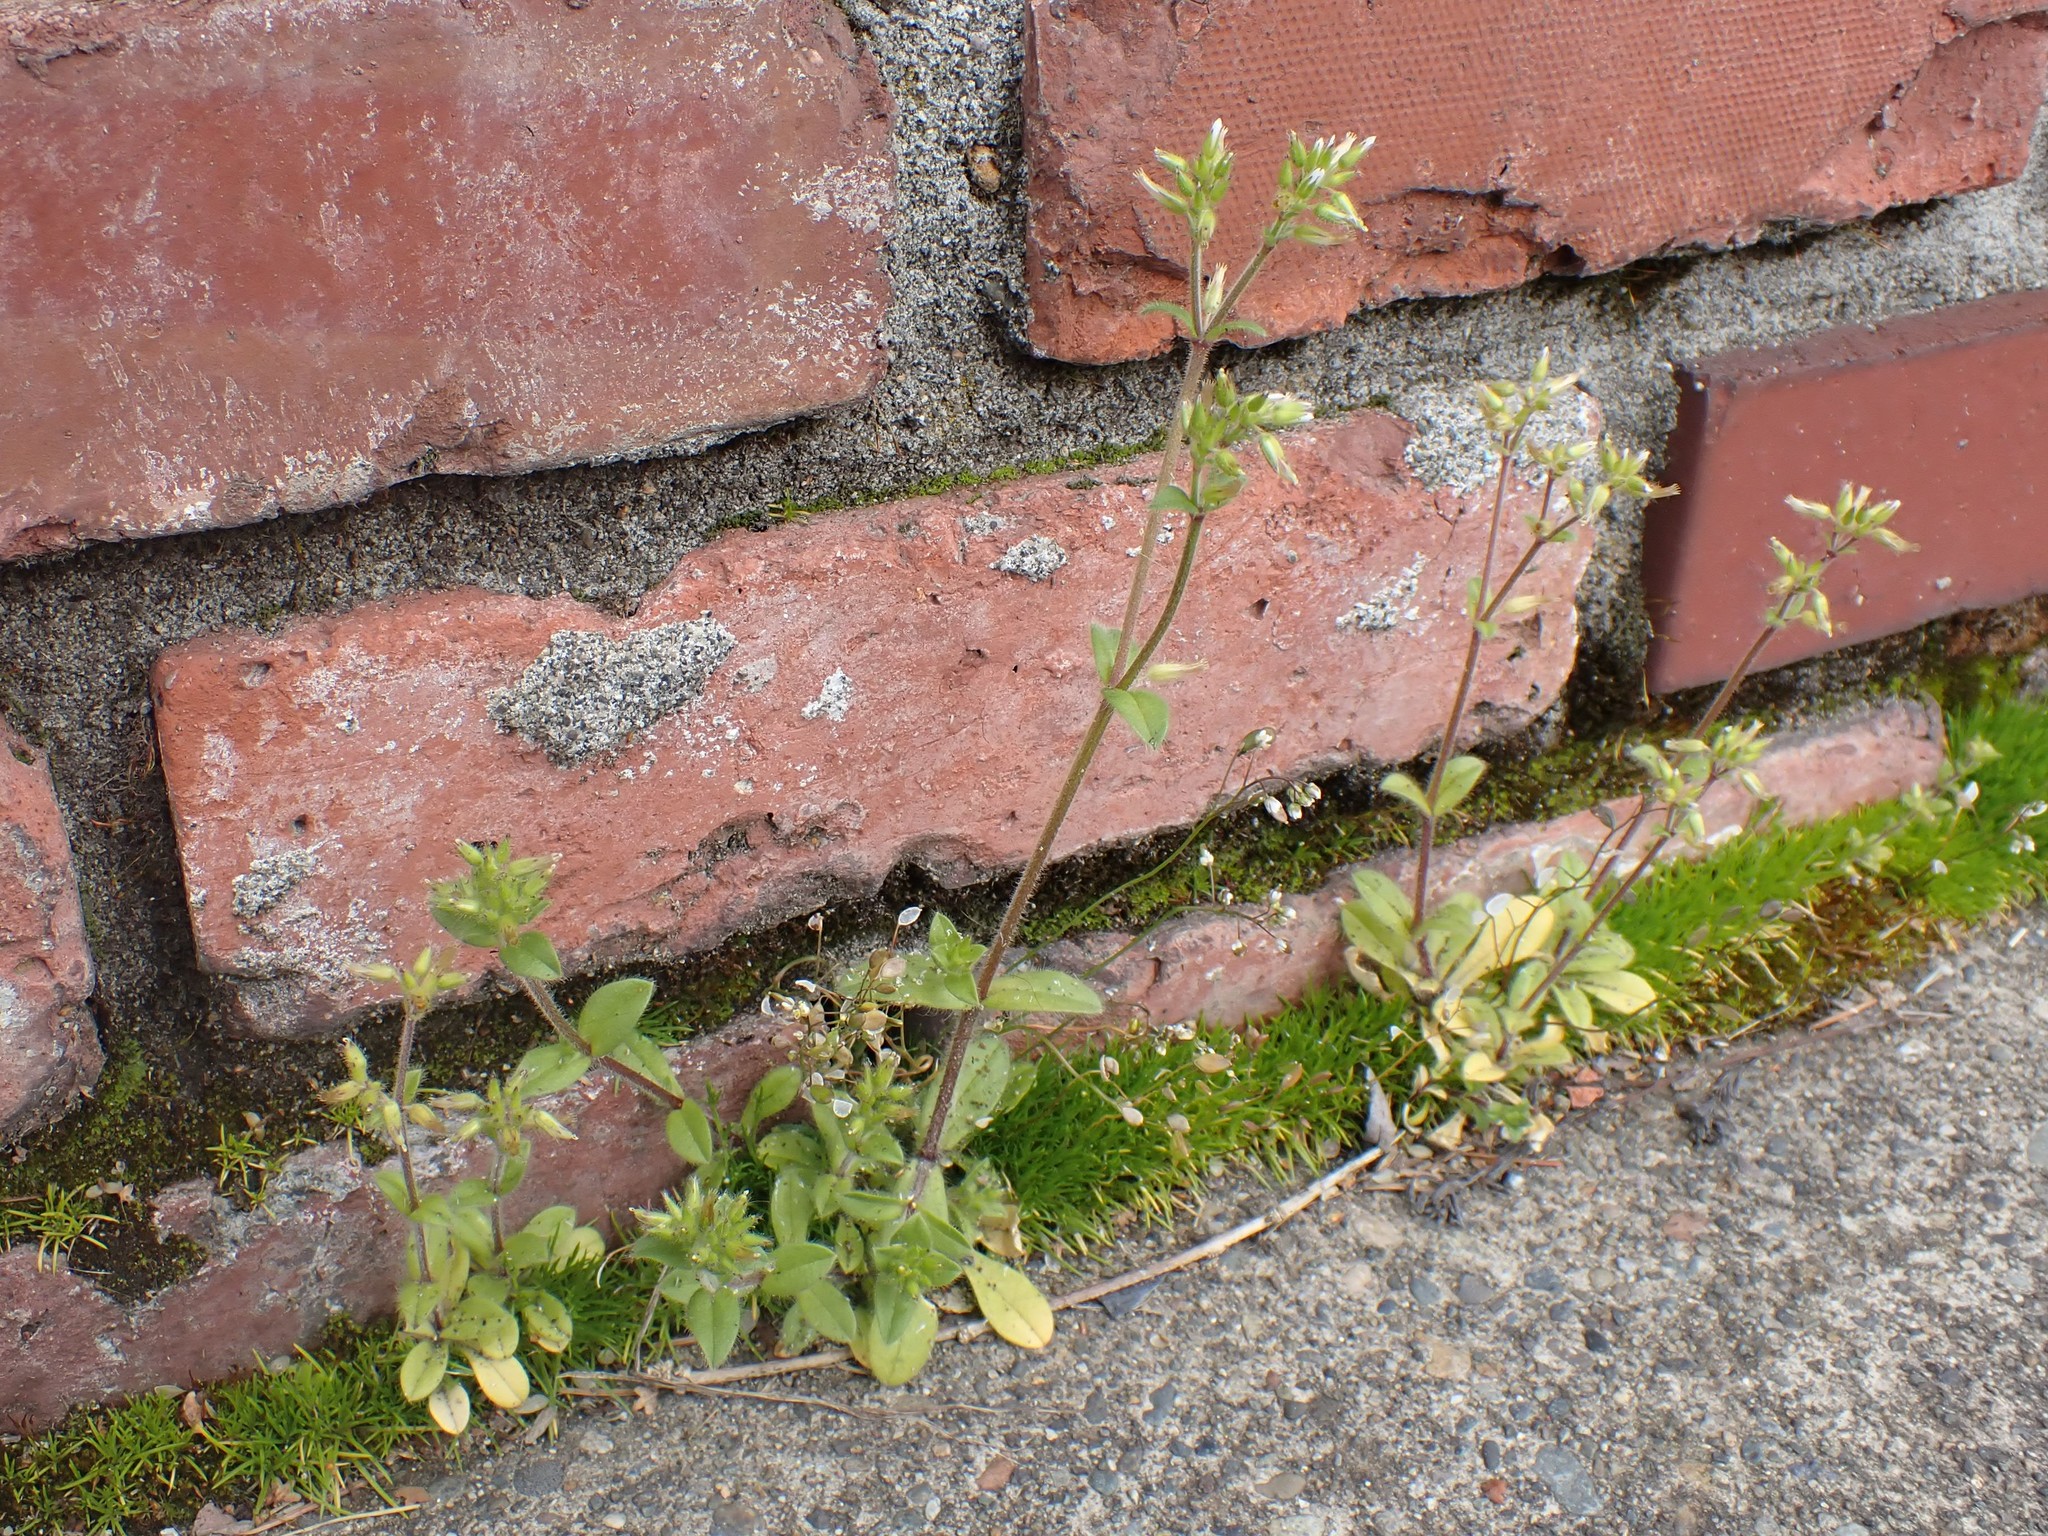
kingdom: Plantae
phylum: Tracheophyta
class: Magnoliopsida
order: Caryophyllales
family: Caryophyllaceae
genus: Cerastium
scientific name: Cerastium glomeratum
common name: Sticky chickweed
